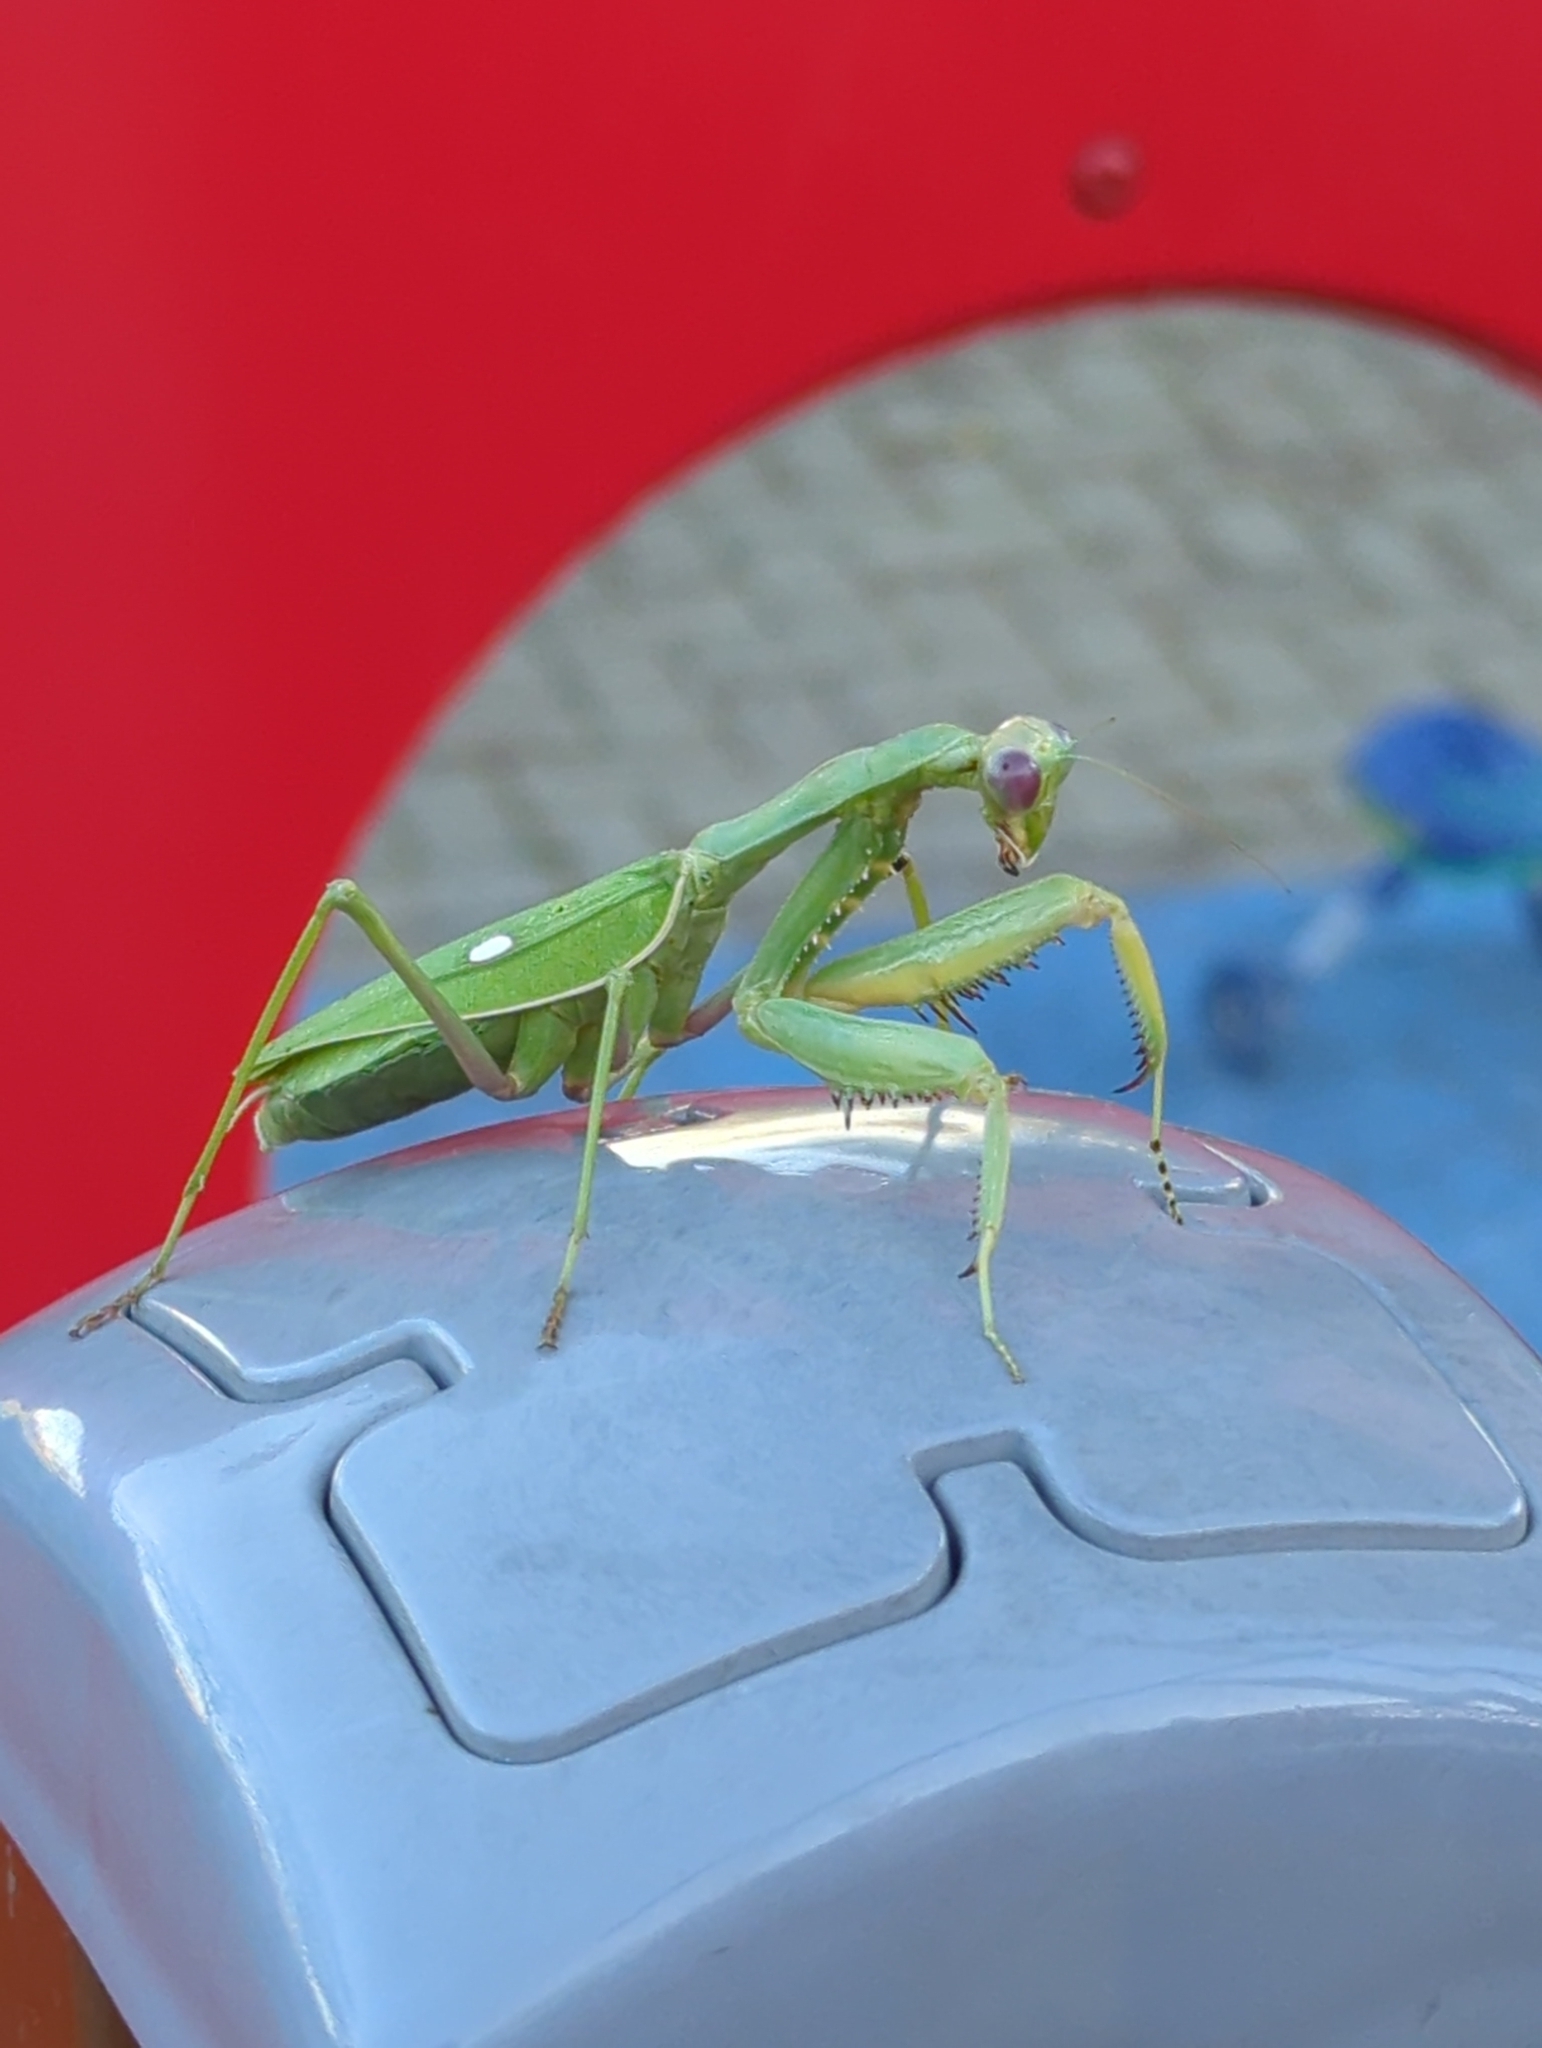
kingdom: Animalia
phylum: Arthropoda
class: Insecta
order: Mantodea
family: Mantidae
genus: Sphodromantis
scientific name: Sphodromantis viridis
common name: Giant african mantis
